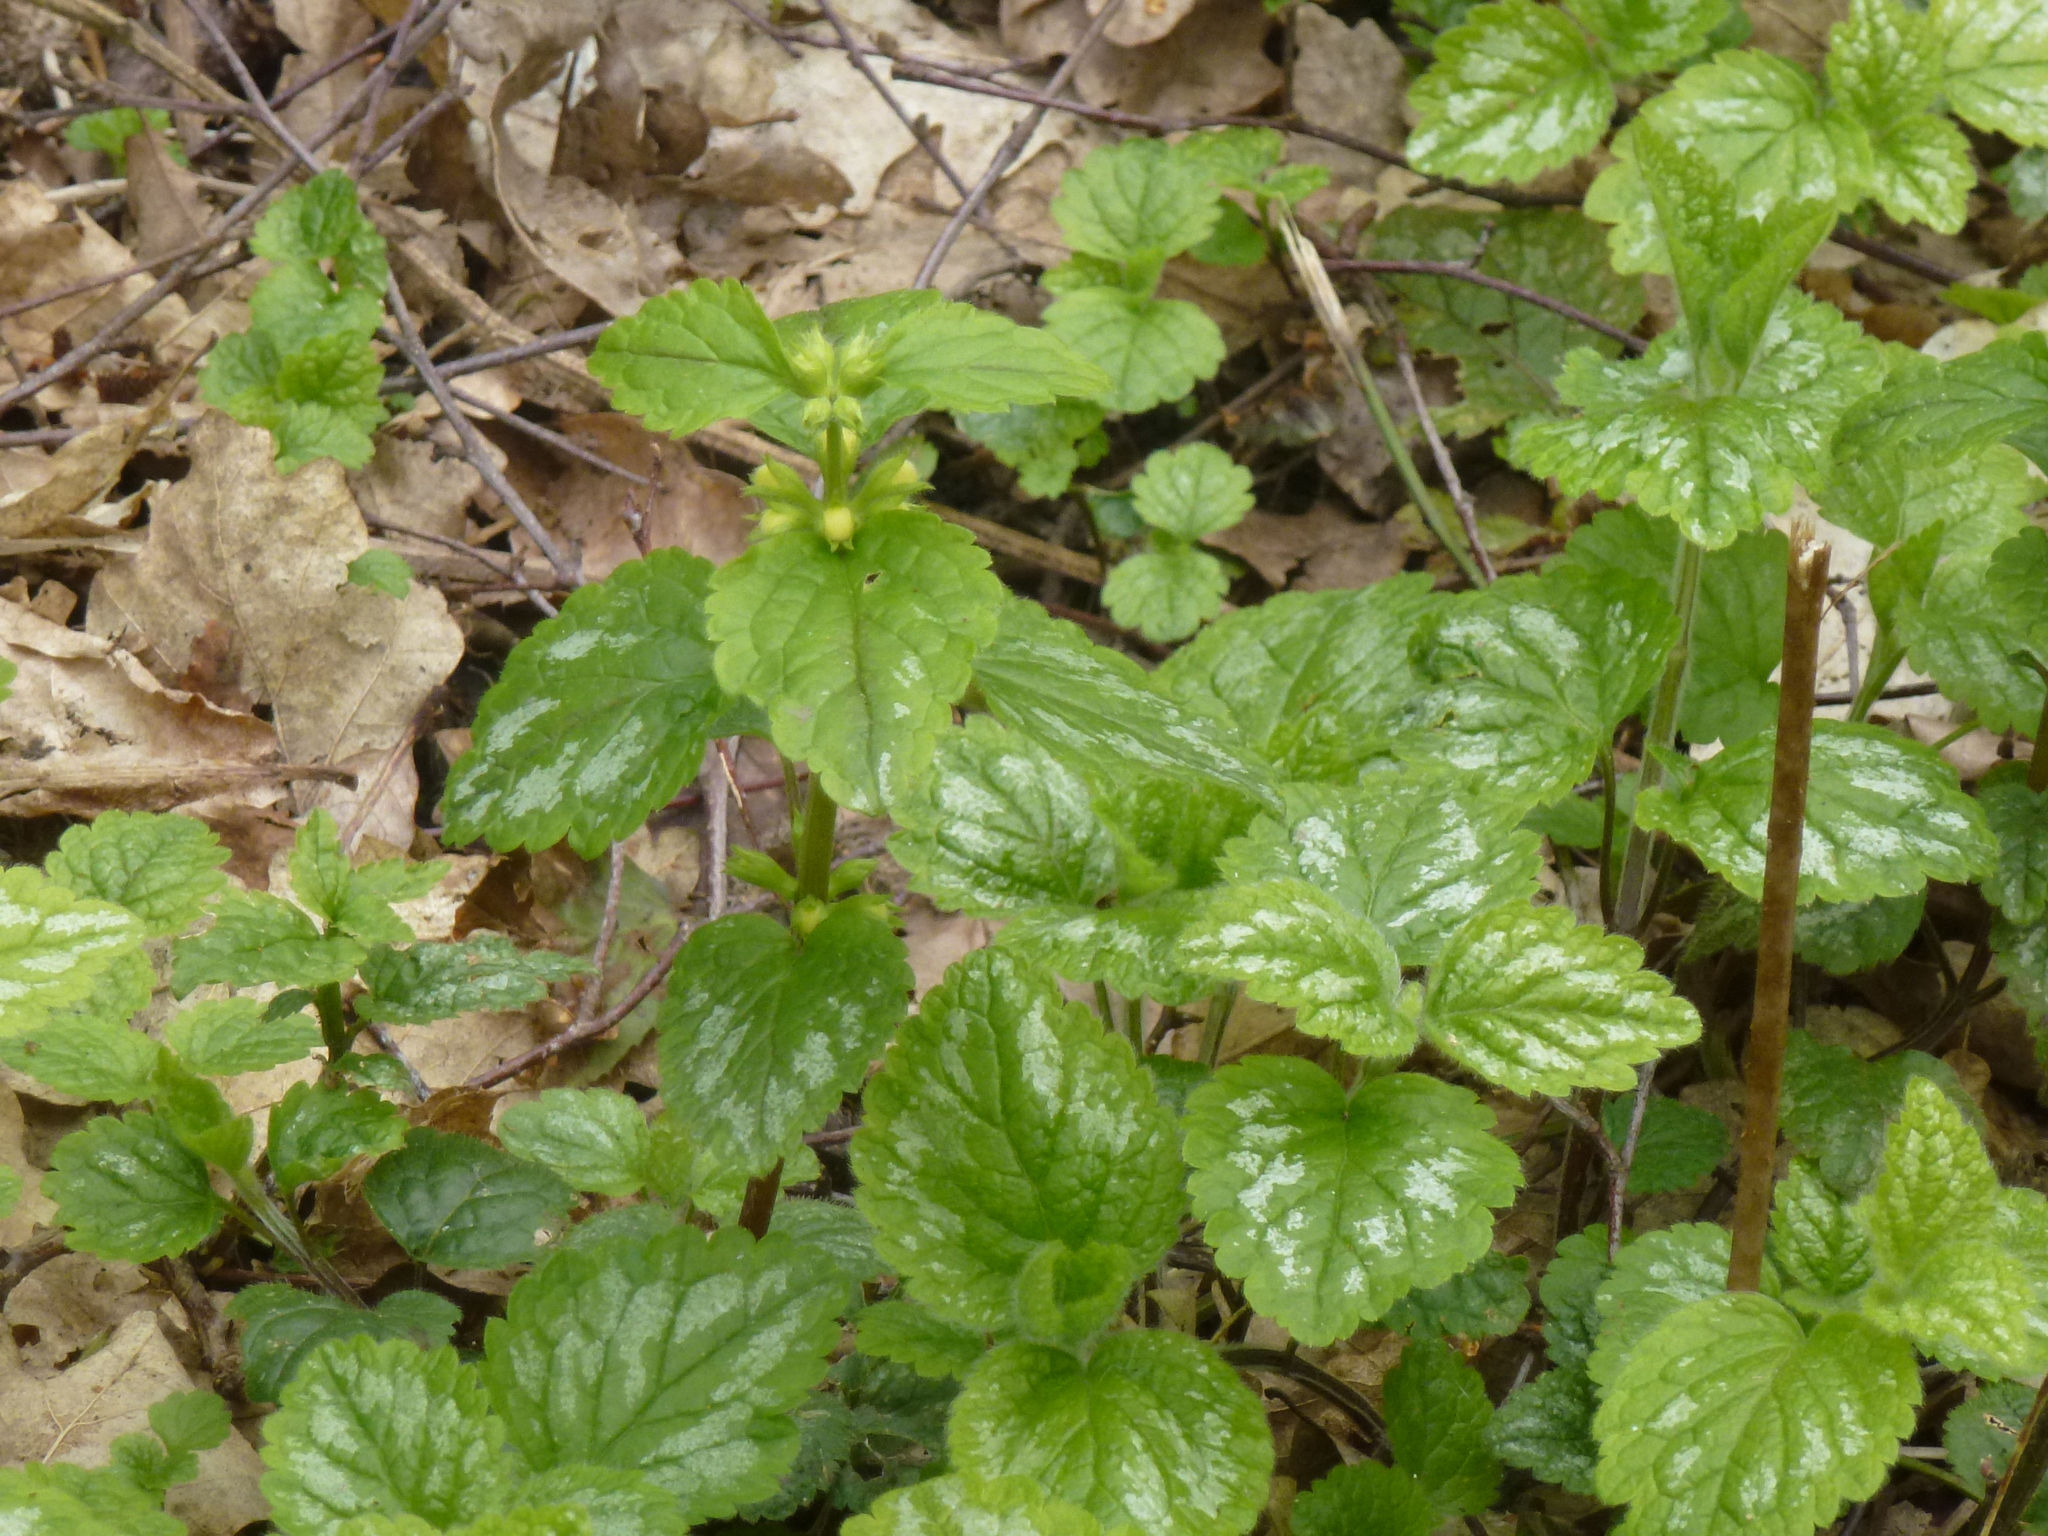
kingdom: Plantae
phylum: Tracheophyta
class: Magnoliopsida
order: Lamiales
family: Lamiaceae
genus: Lamium
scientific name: Lamium galeobdolon
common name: Yellow archangel
